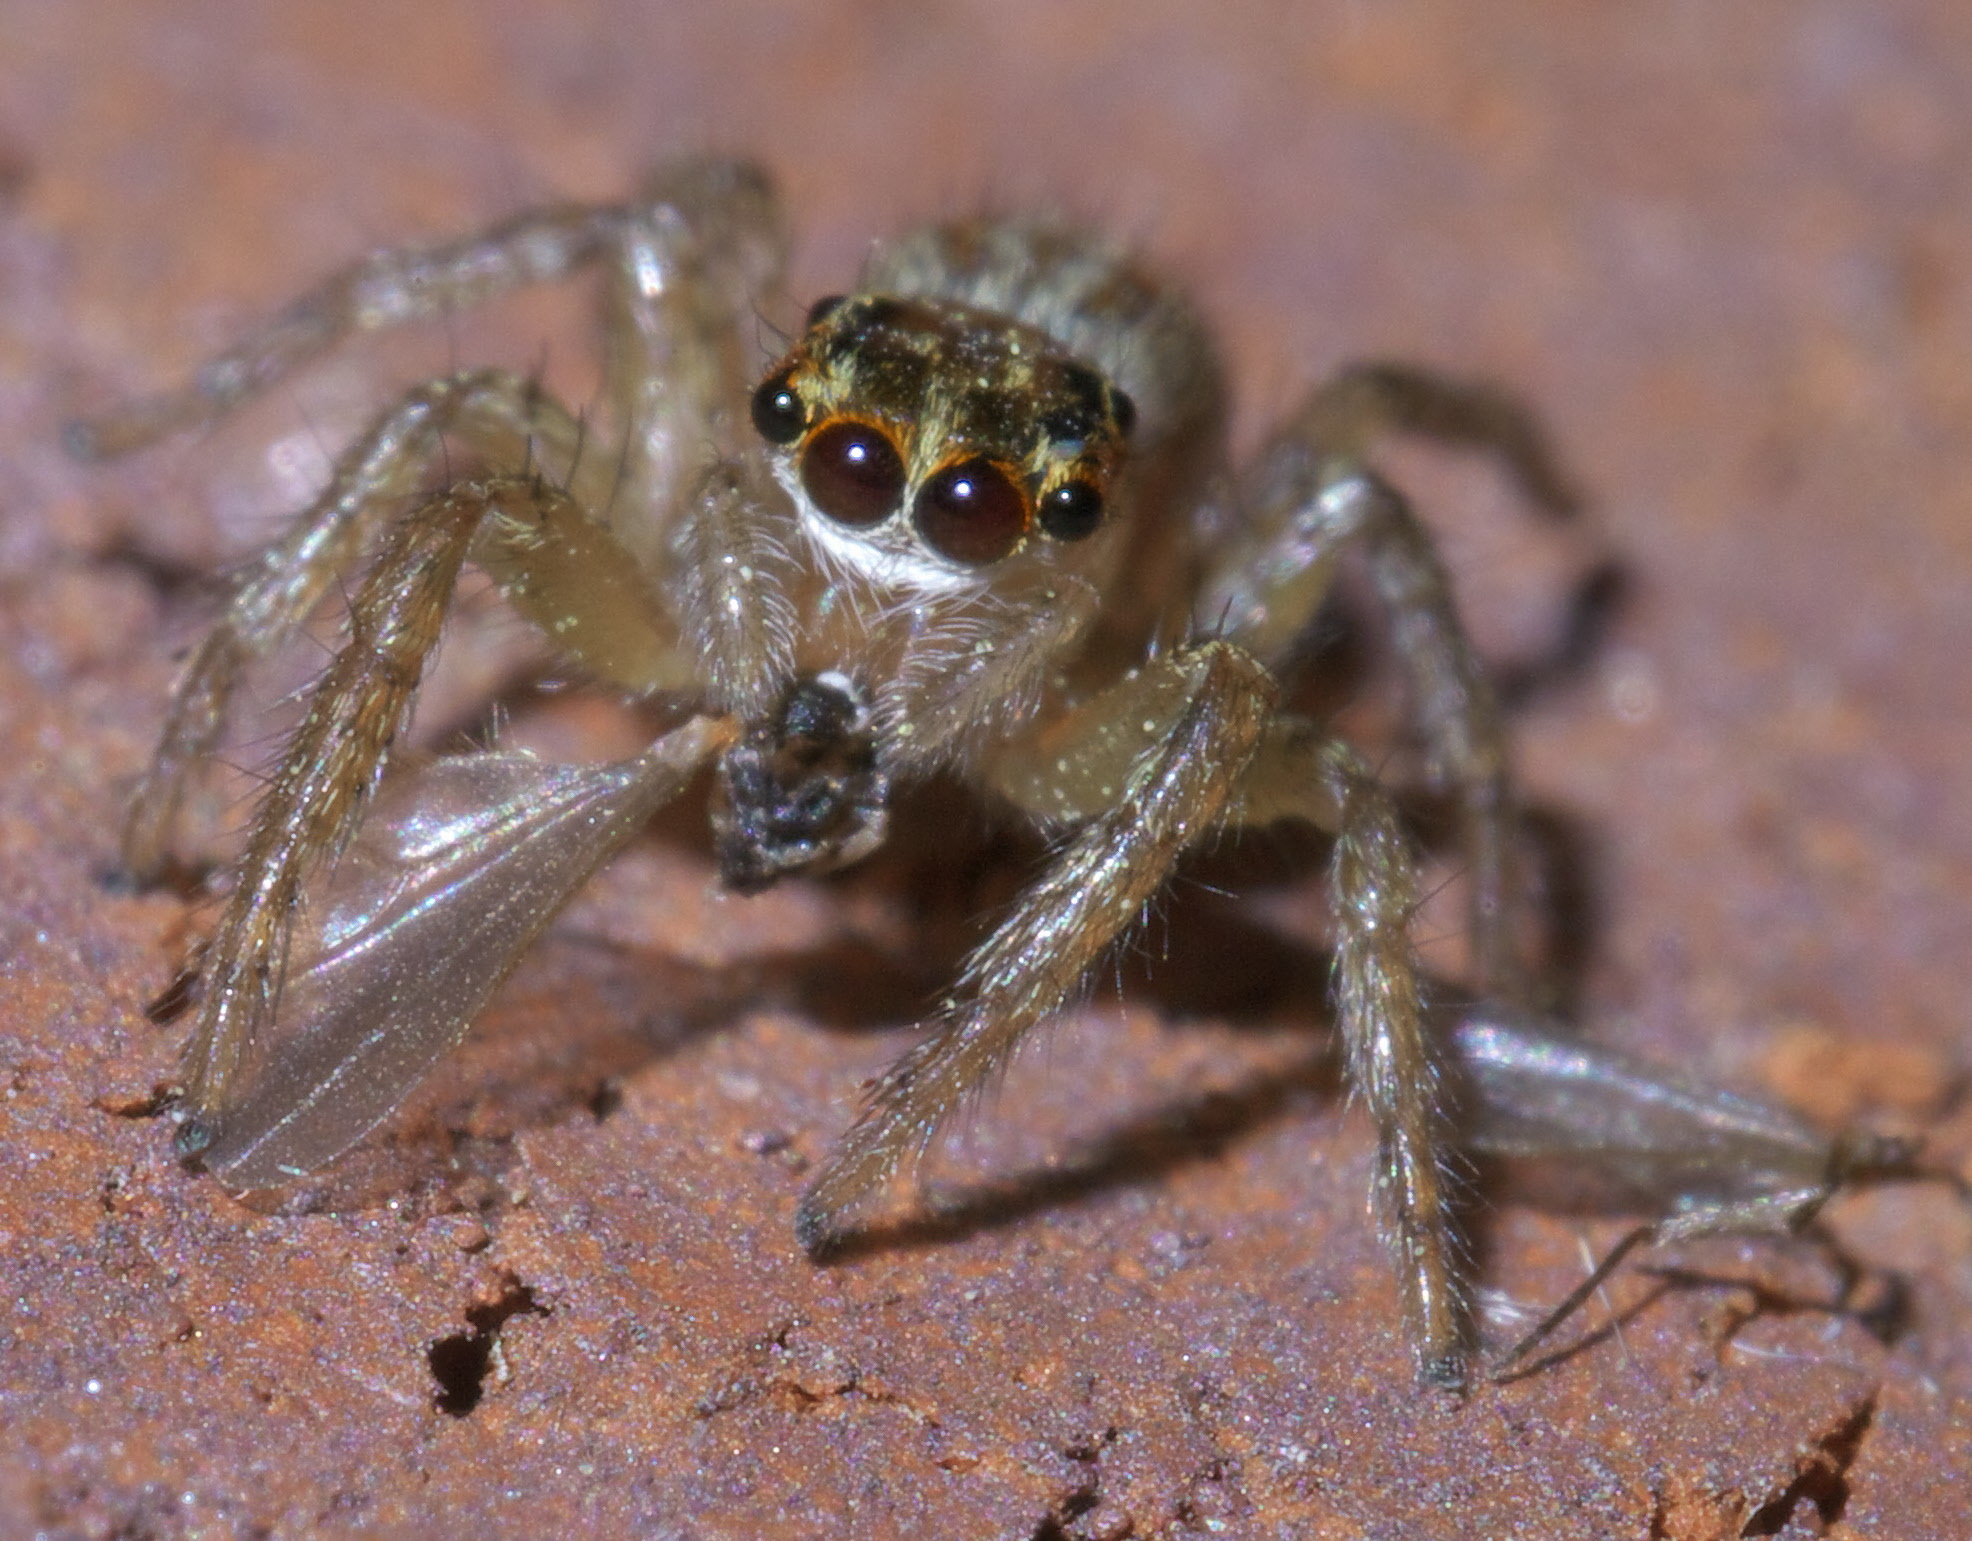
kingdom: Animalia
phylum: Arthropoda
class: Arachnida
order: Araneae
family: Salticidae
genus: Maevia
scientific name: Maevia inclemens
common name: Dimorphic jumper
